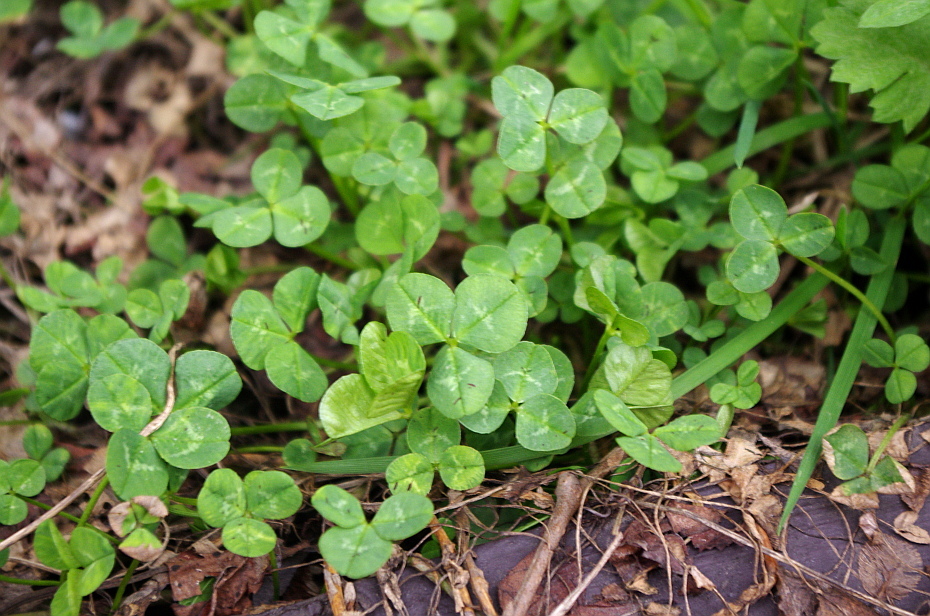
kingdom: Plantae
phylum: Tracheophyta
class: Magnoliopsida
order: Fabales
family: Fabaceae
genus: Trifolium
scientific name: Trifolium repens
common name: White clover
